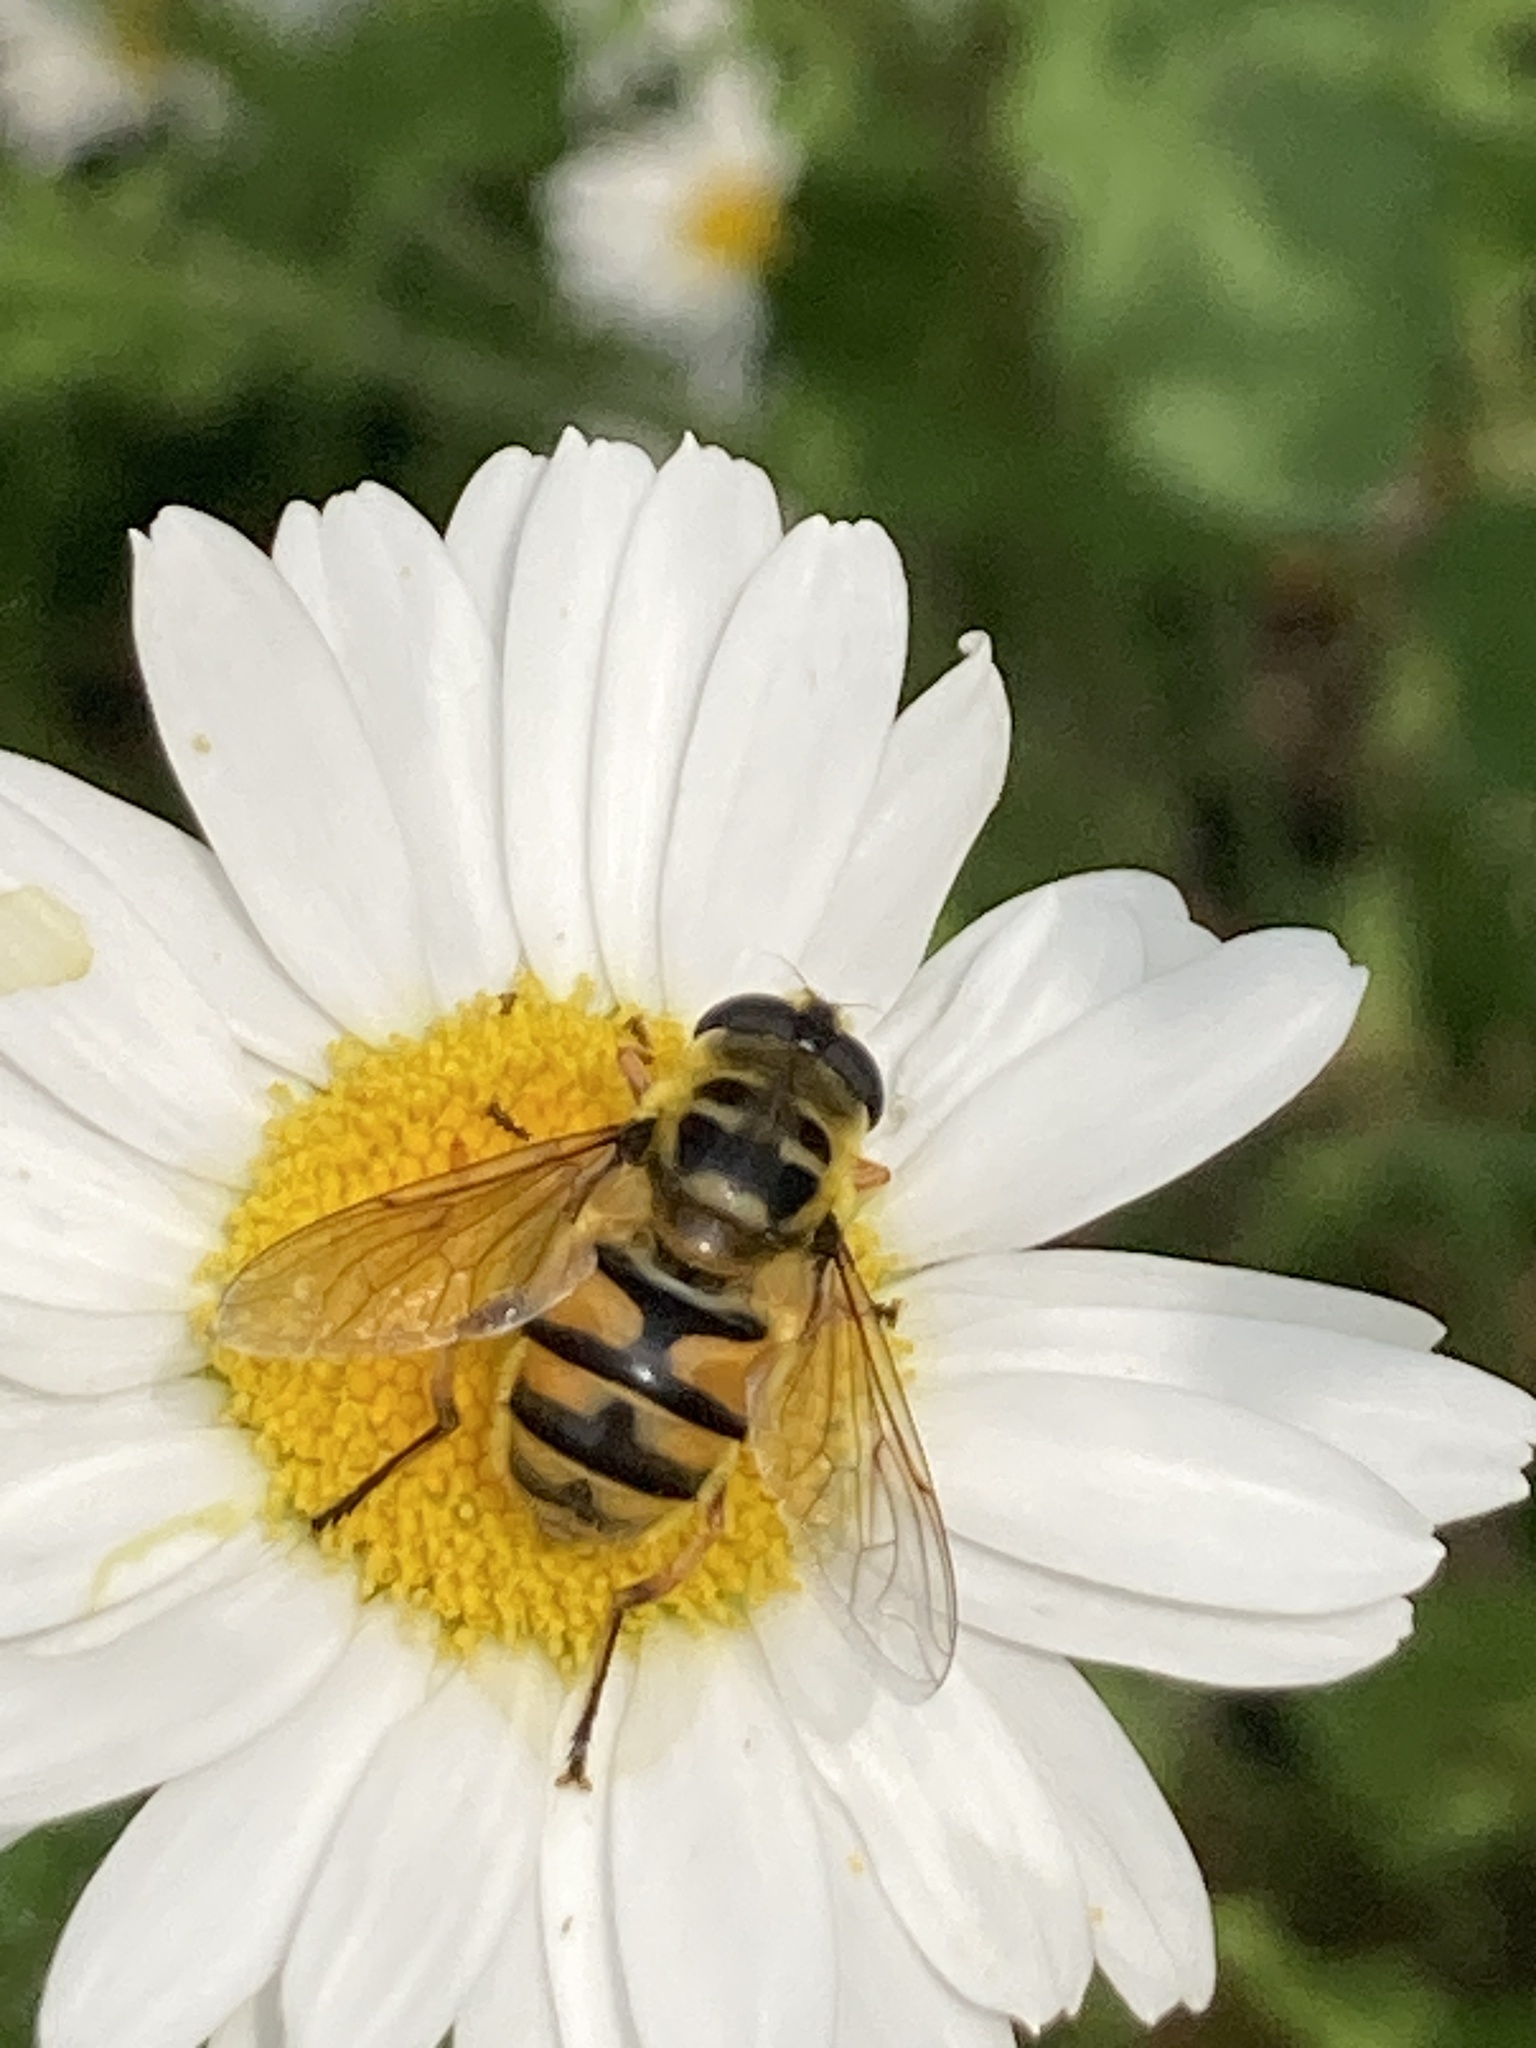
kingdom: Animalia
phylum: Arthropoda
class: Insecta
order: Diptera
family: Syrphidae
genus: Myathropa
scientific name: Myathropa florea
